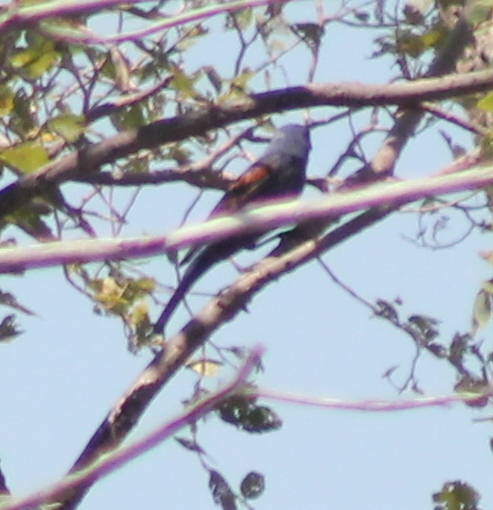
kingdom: Animalia
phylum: Chordata
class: Aves
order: Passeriformes
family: Cardinalidae
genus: Passerina
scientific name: Passerina caerulea
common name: Blue grosbeak
